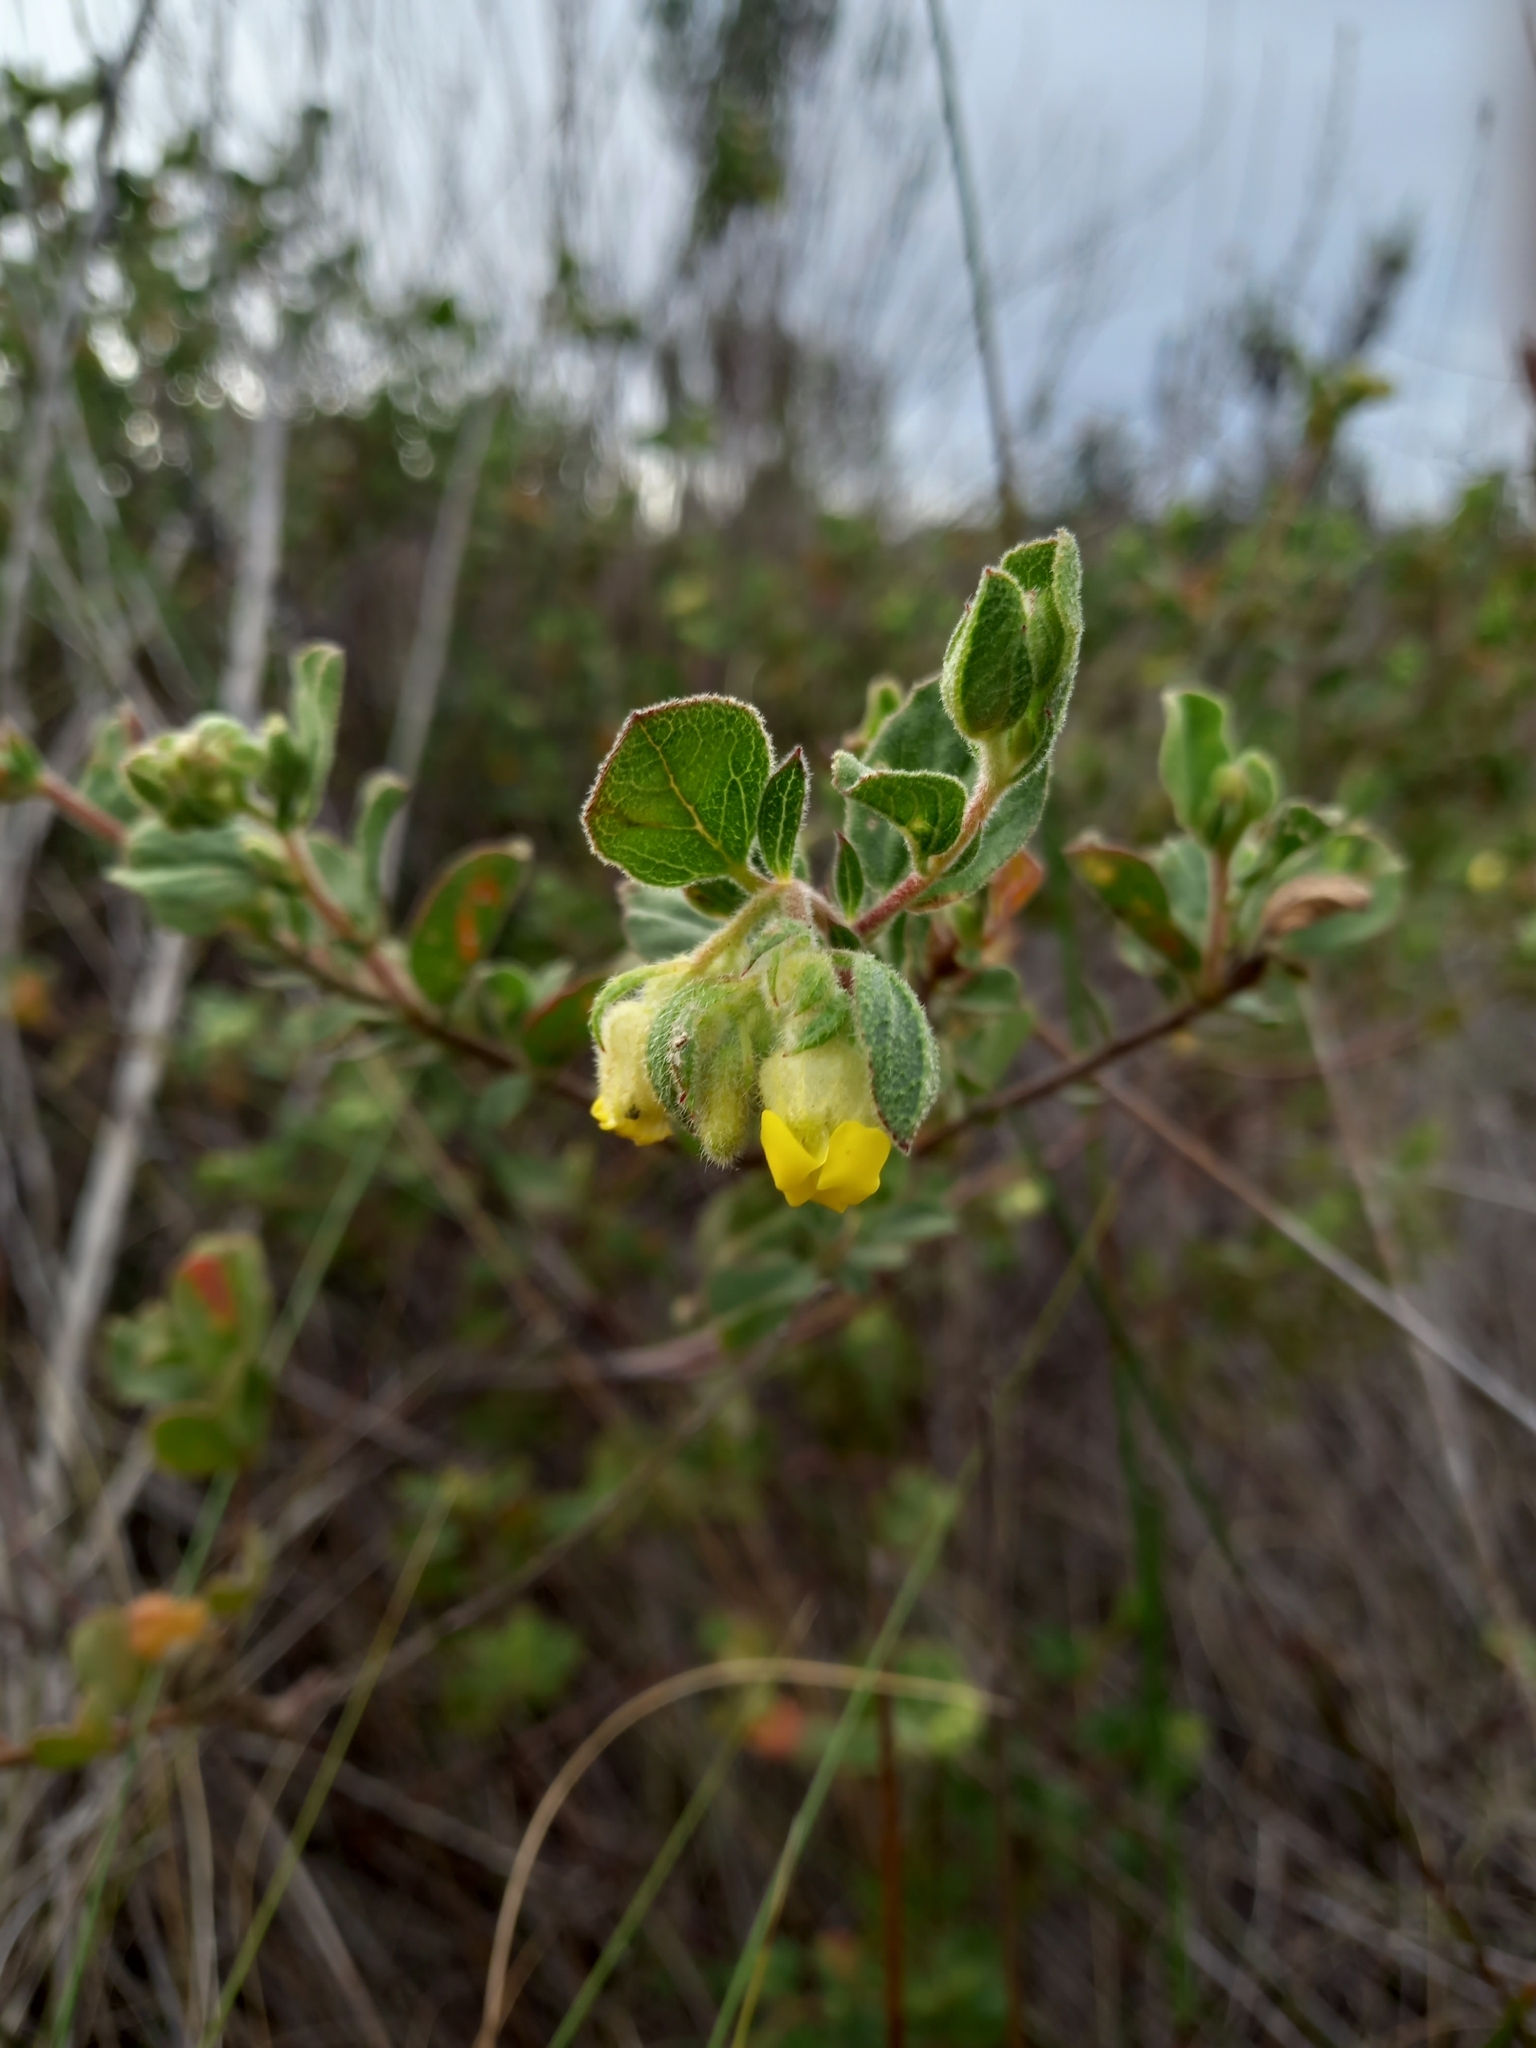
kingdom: Plantae
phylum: Tracheophyta
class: Magnoliopsida
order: Malvales
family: Malvaceae
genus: Hermannia
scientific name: Hermannia salviifolia
